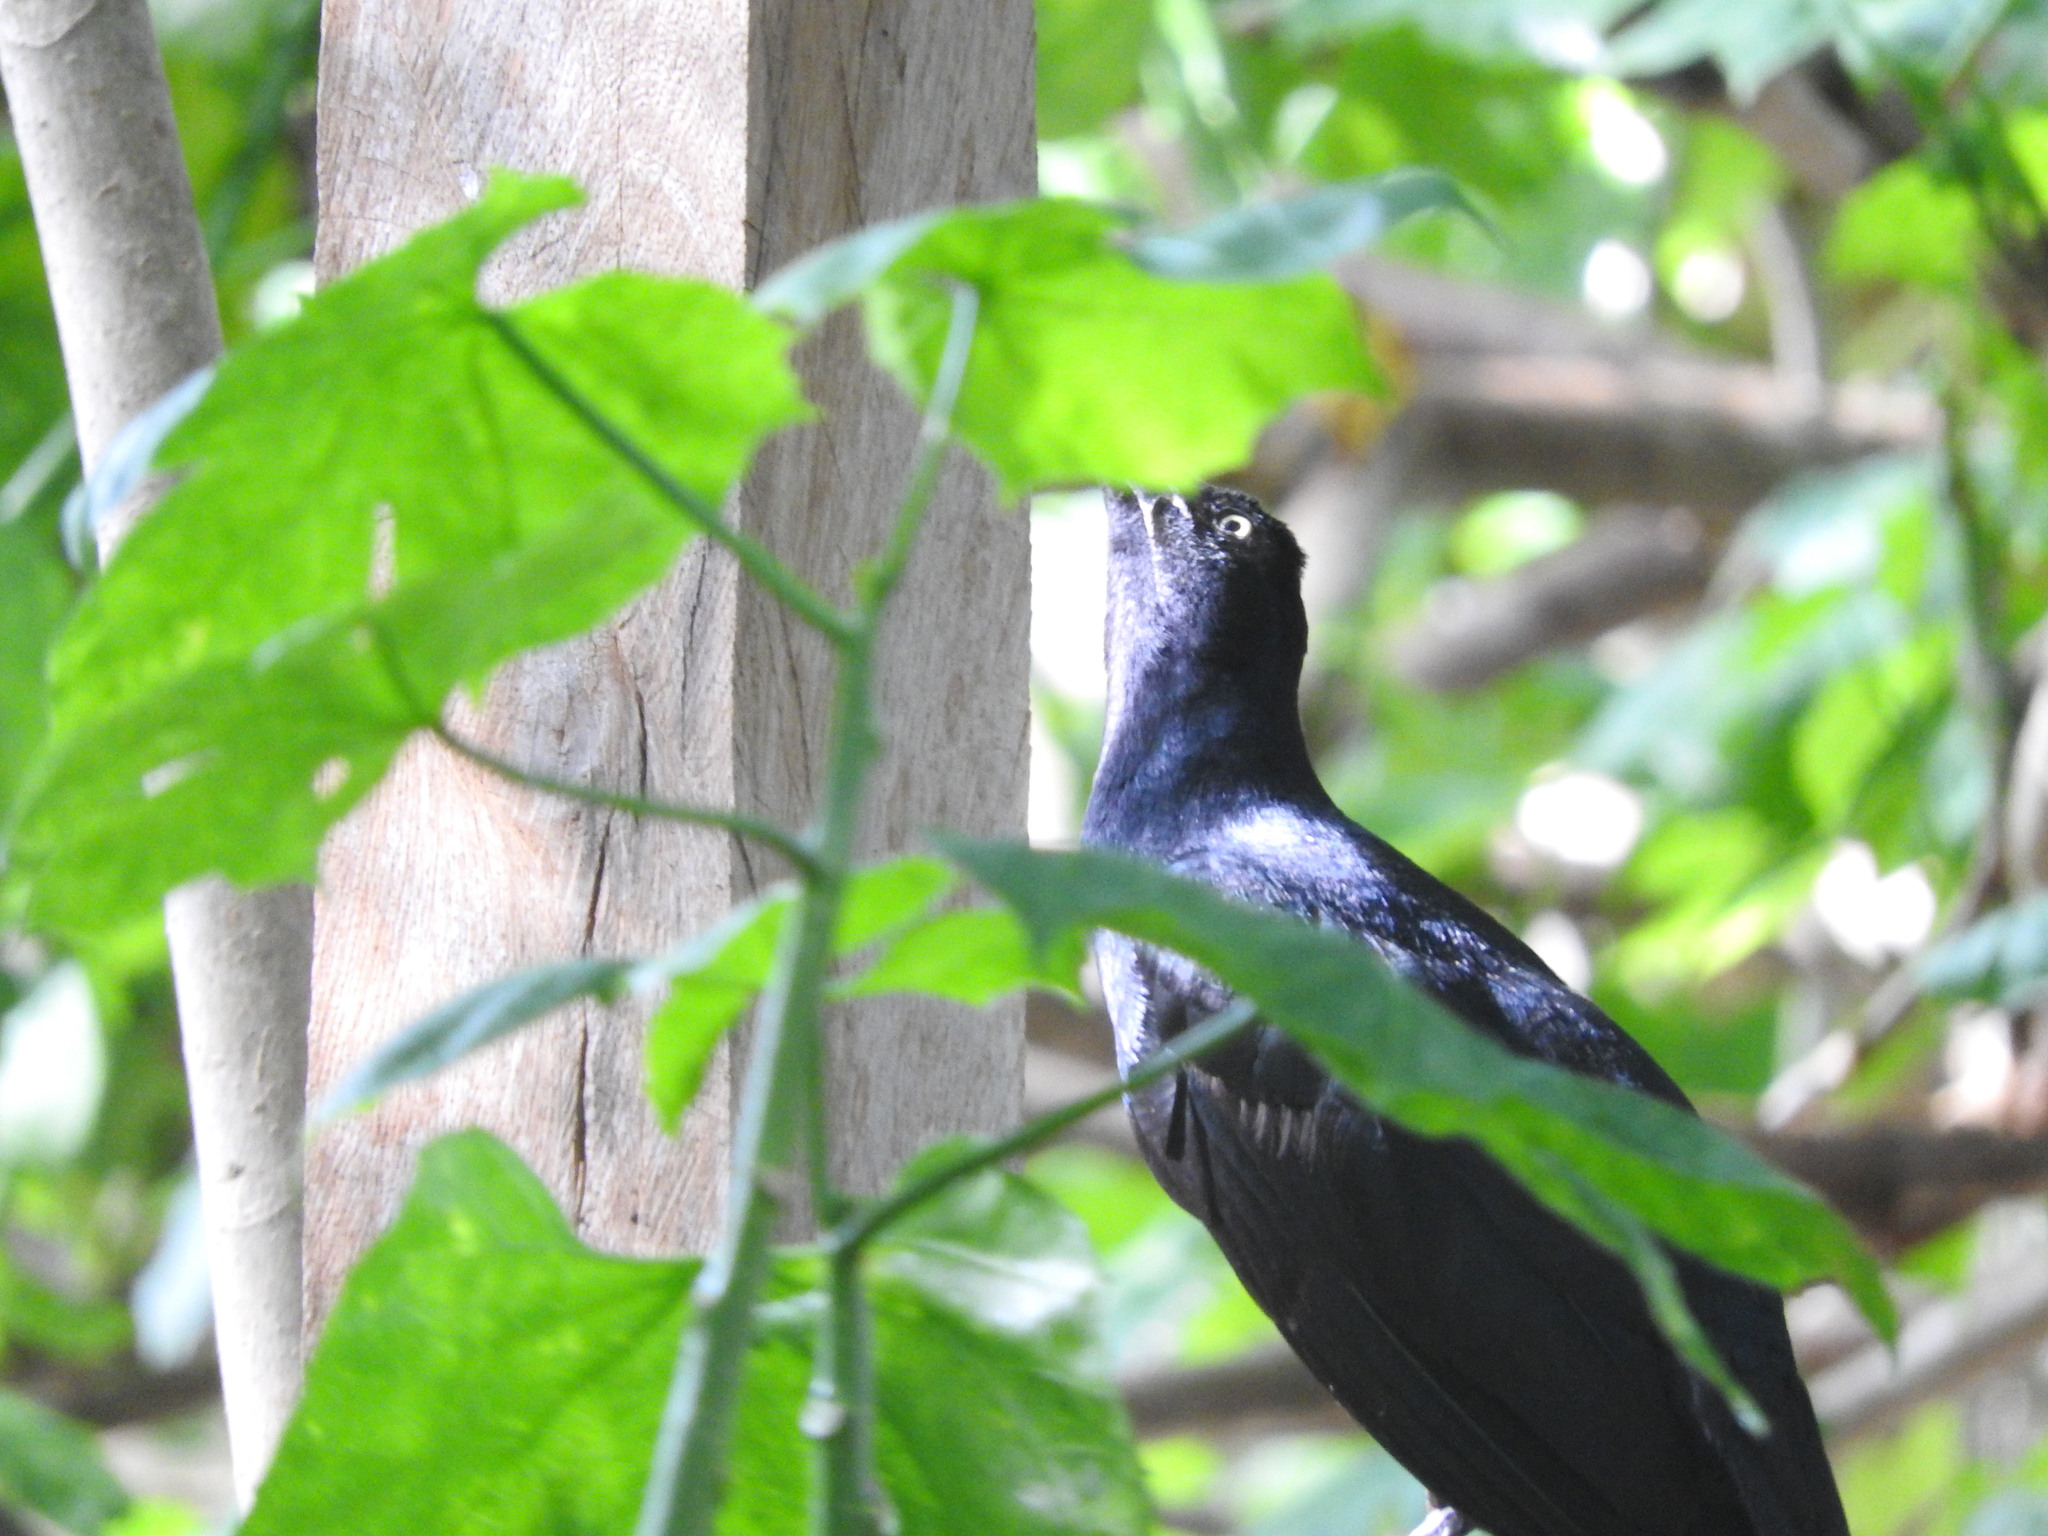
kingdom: Animalia
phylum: Chordata
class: Aves
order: Passeriformes
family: Icteridae
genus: Quiscalus
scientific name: Quiscalus mexicanus
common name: Great-tailed grackle
